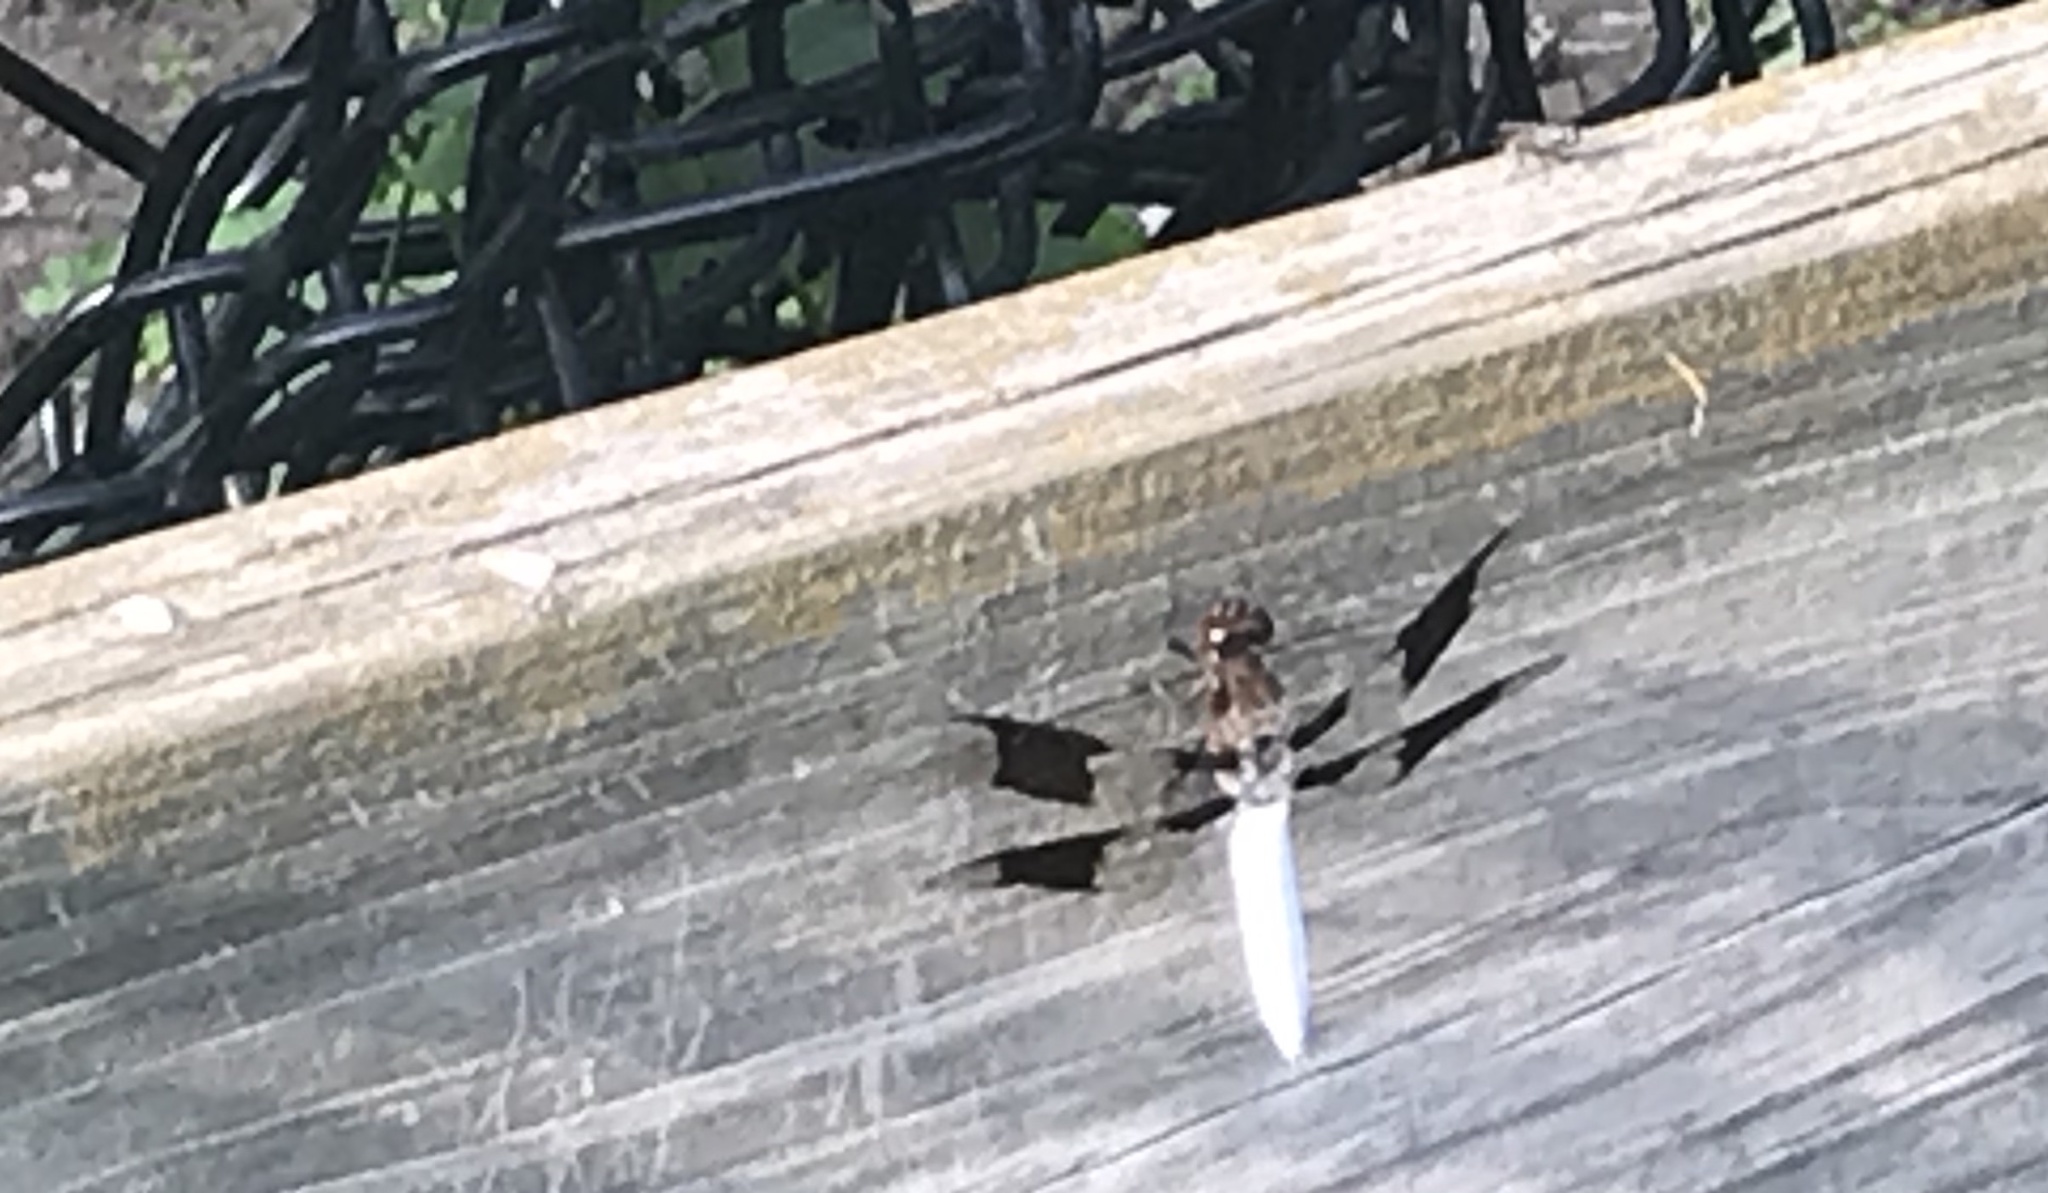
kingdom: Animalia
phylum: Arthropoda
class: Insecta
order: Odonata
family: Libellulidae
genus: Plathemis
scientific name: Plathemis lydia
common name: Common whitetail
